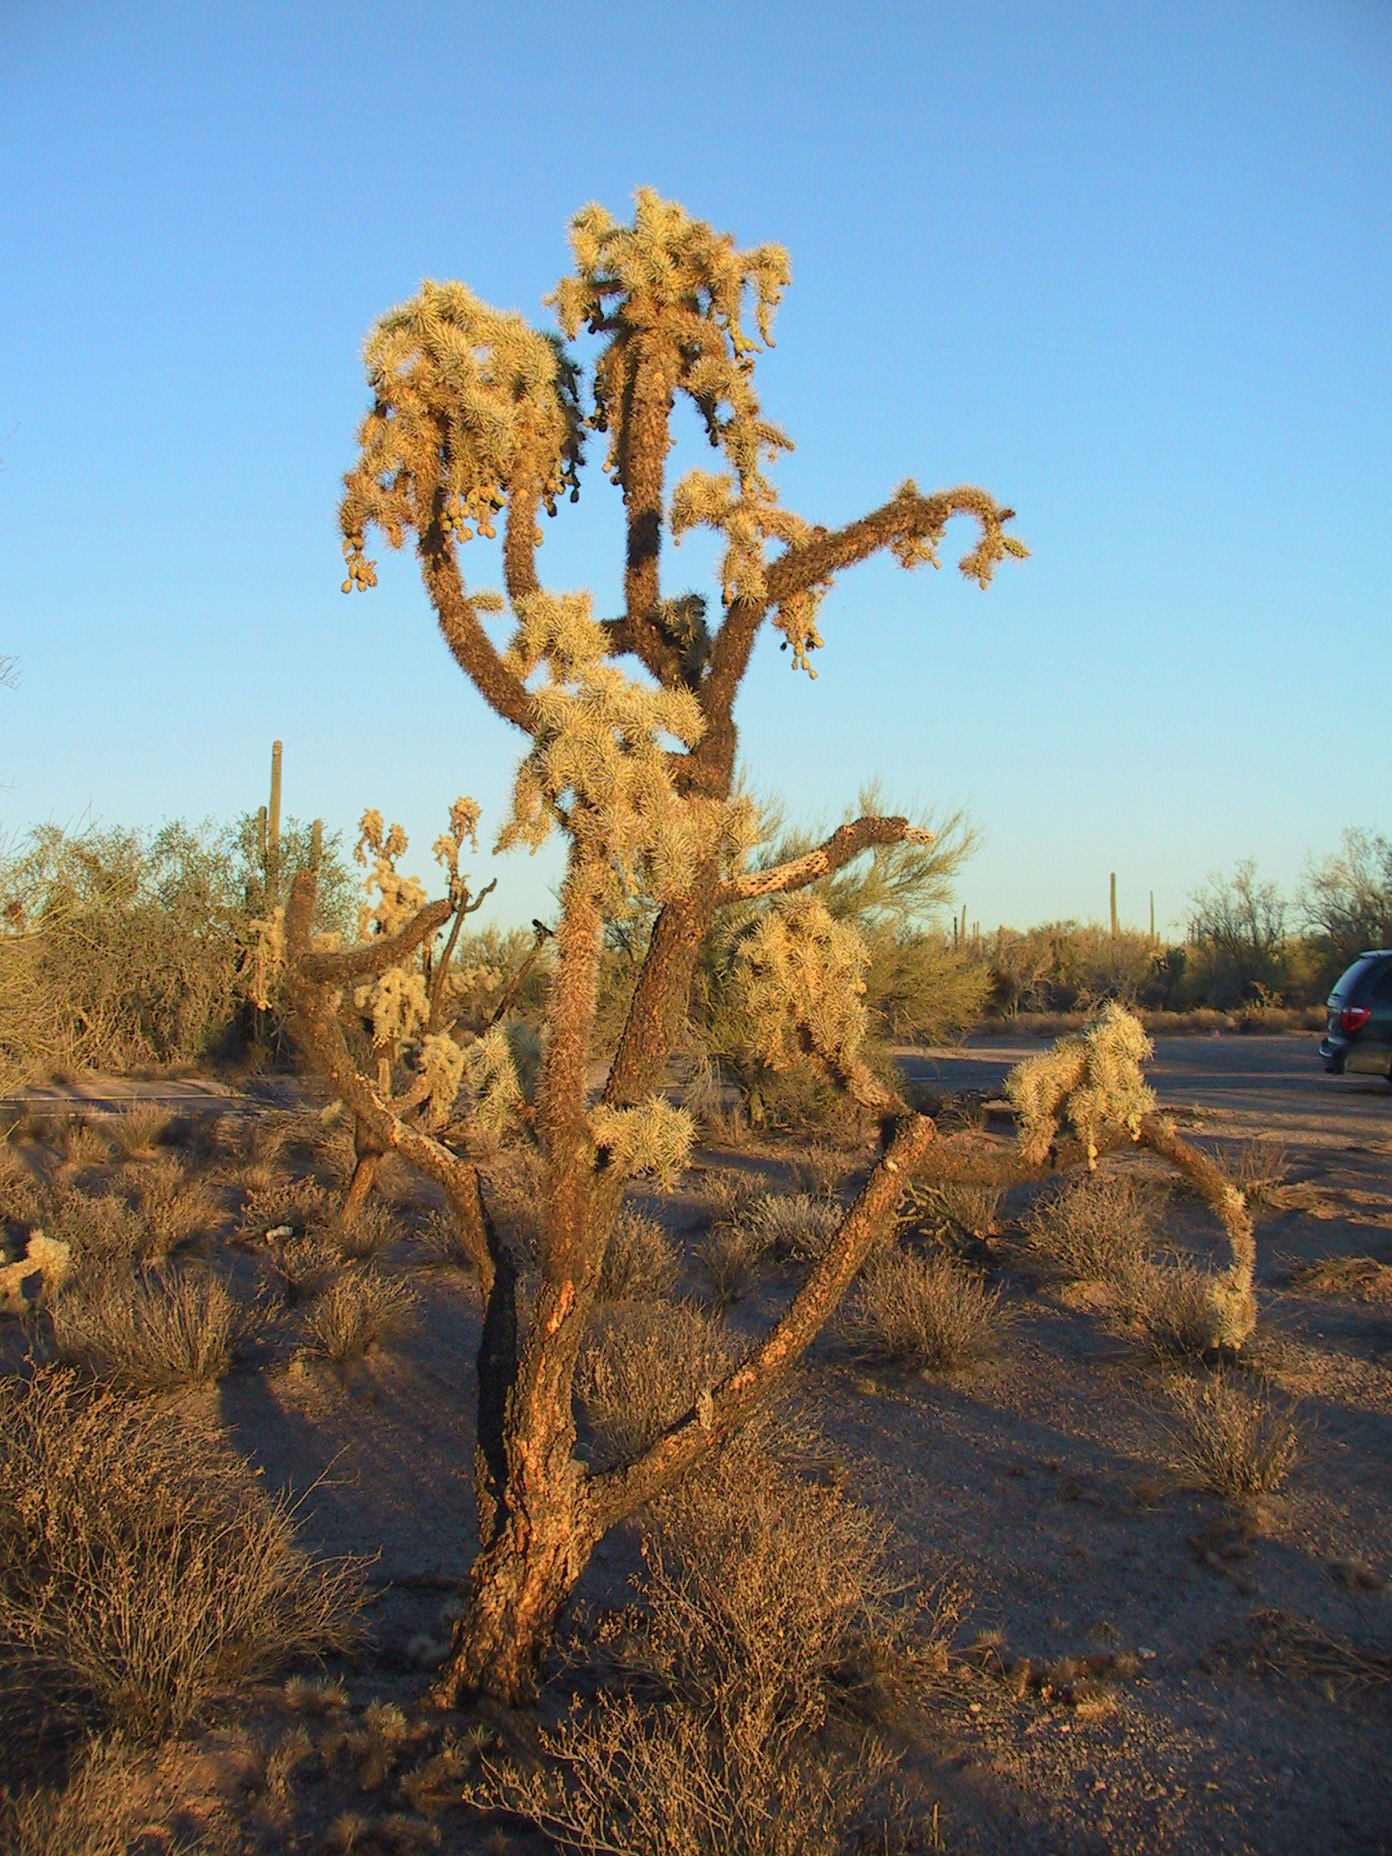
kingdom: Plantae
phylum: Tracheophyta
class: Magnoliopsida
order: Caryophyllales
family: Cactaceae
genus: Cylindropuntia
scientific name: Cylindropuntia fulgida
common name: Jumping cholla
